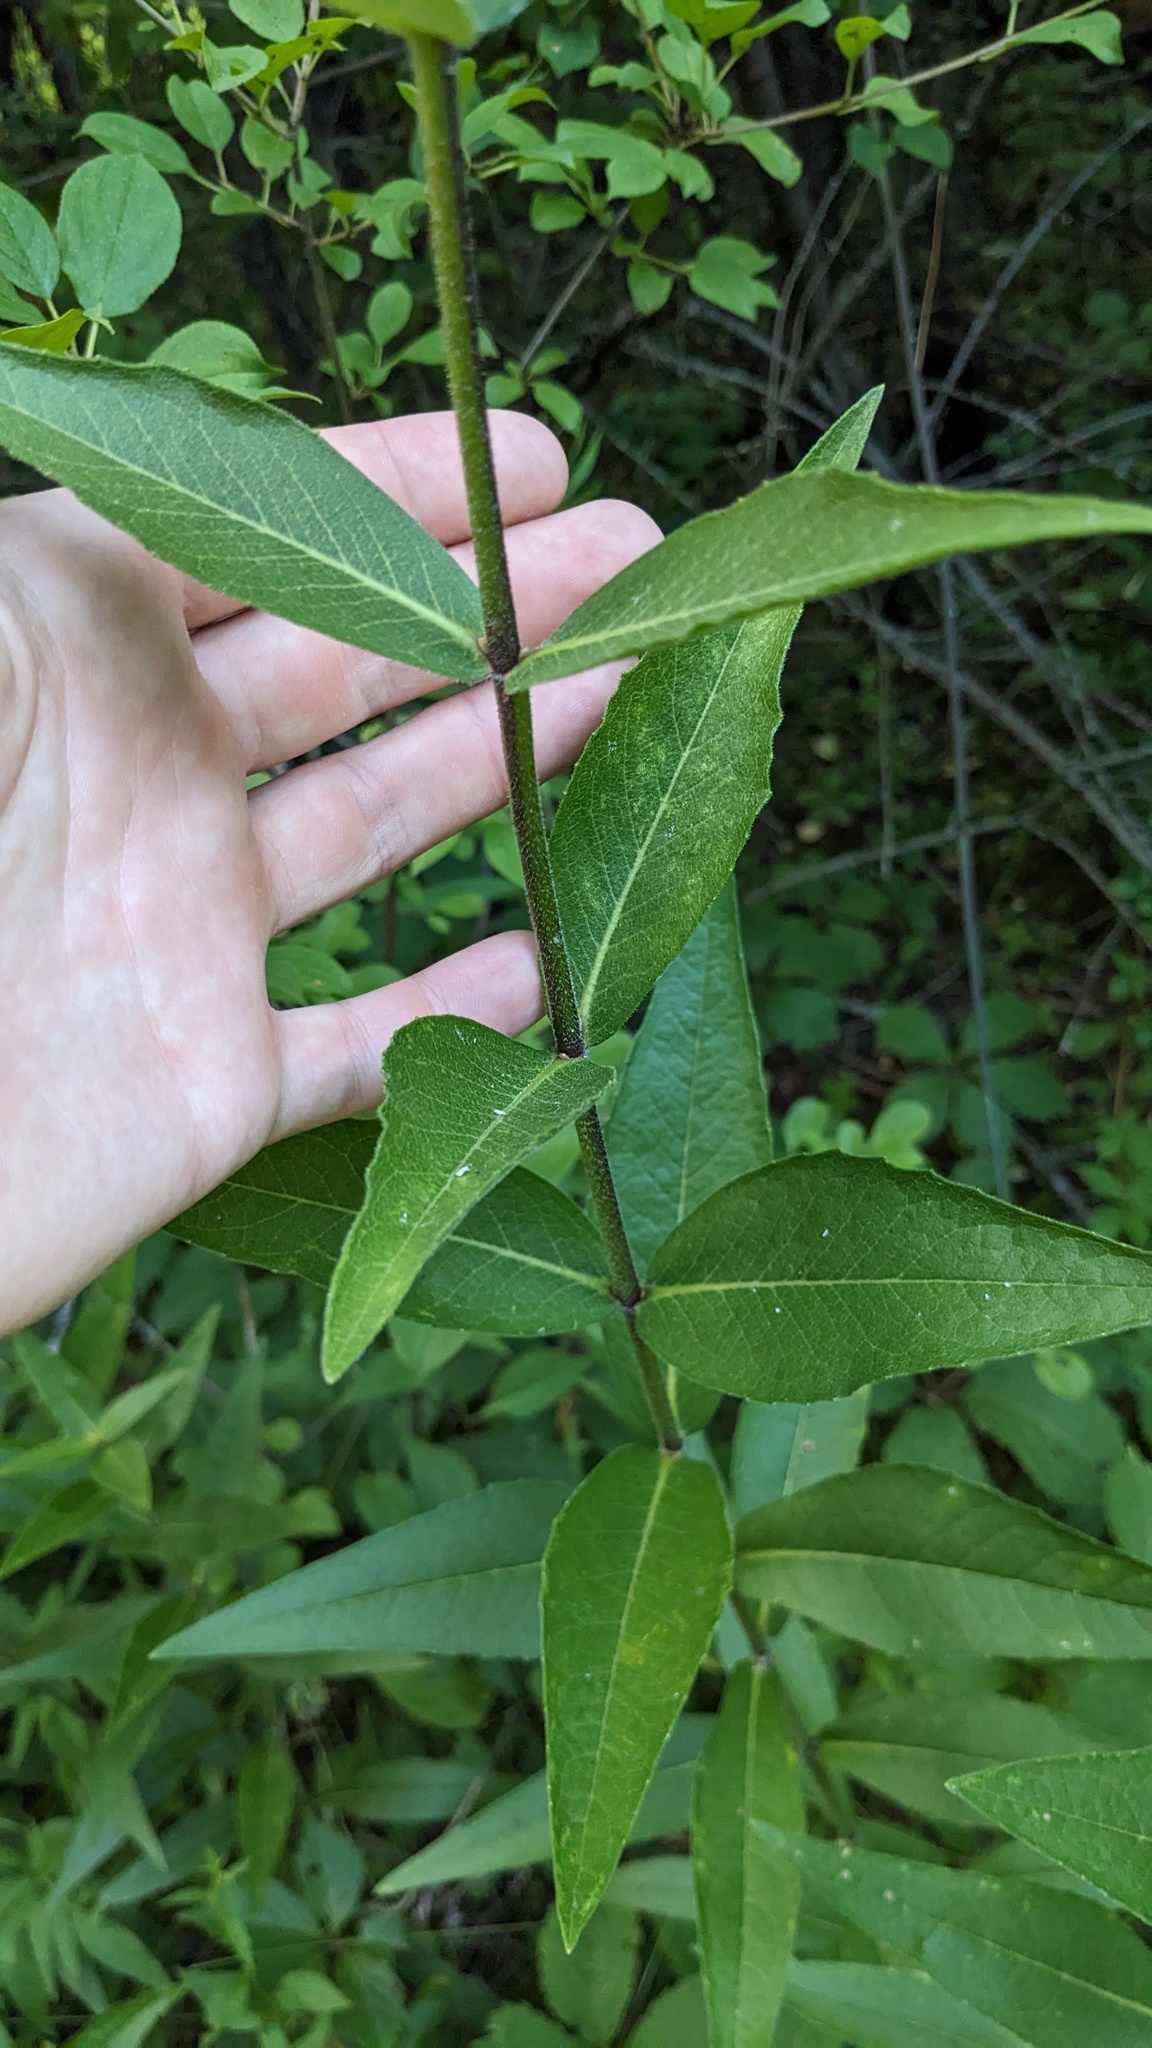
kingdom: Plantae
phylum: Tracheophyta
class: Magnoliopsida
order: Asterales
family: Asteraceae
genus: Silphium
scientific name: Silphium integrifolium
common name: Whole-leaf rosinweed
